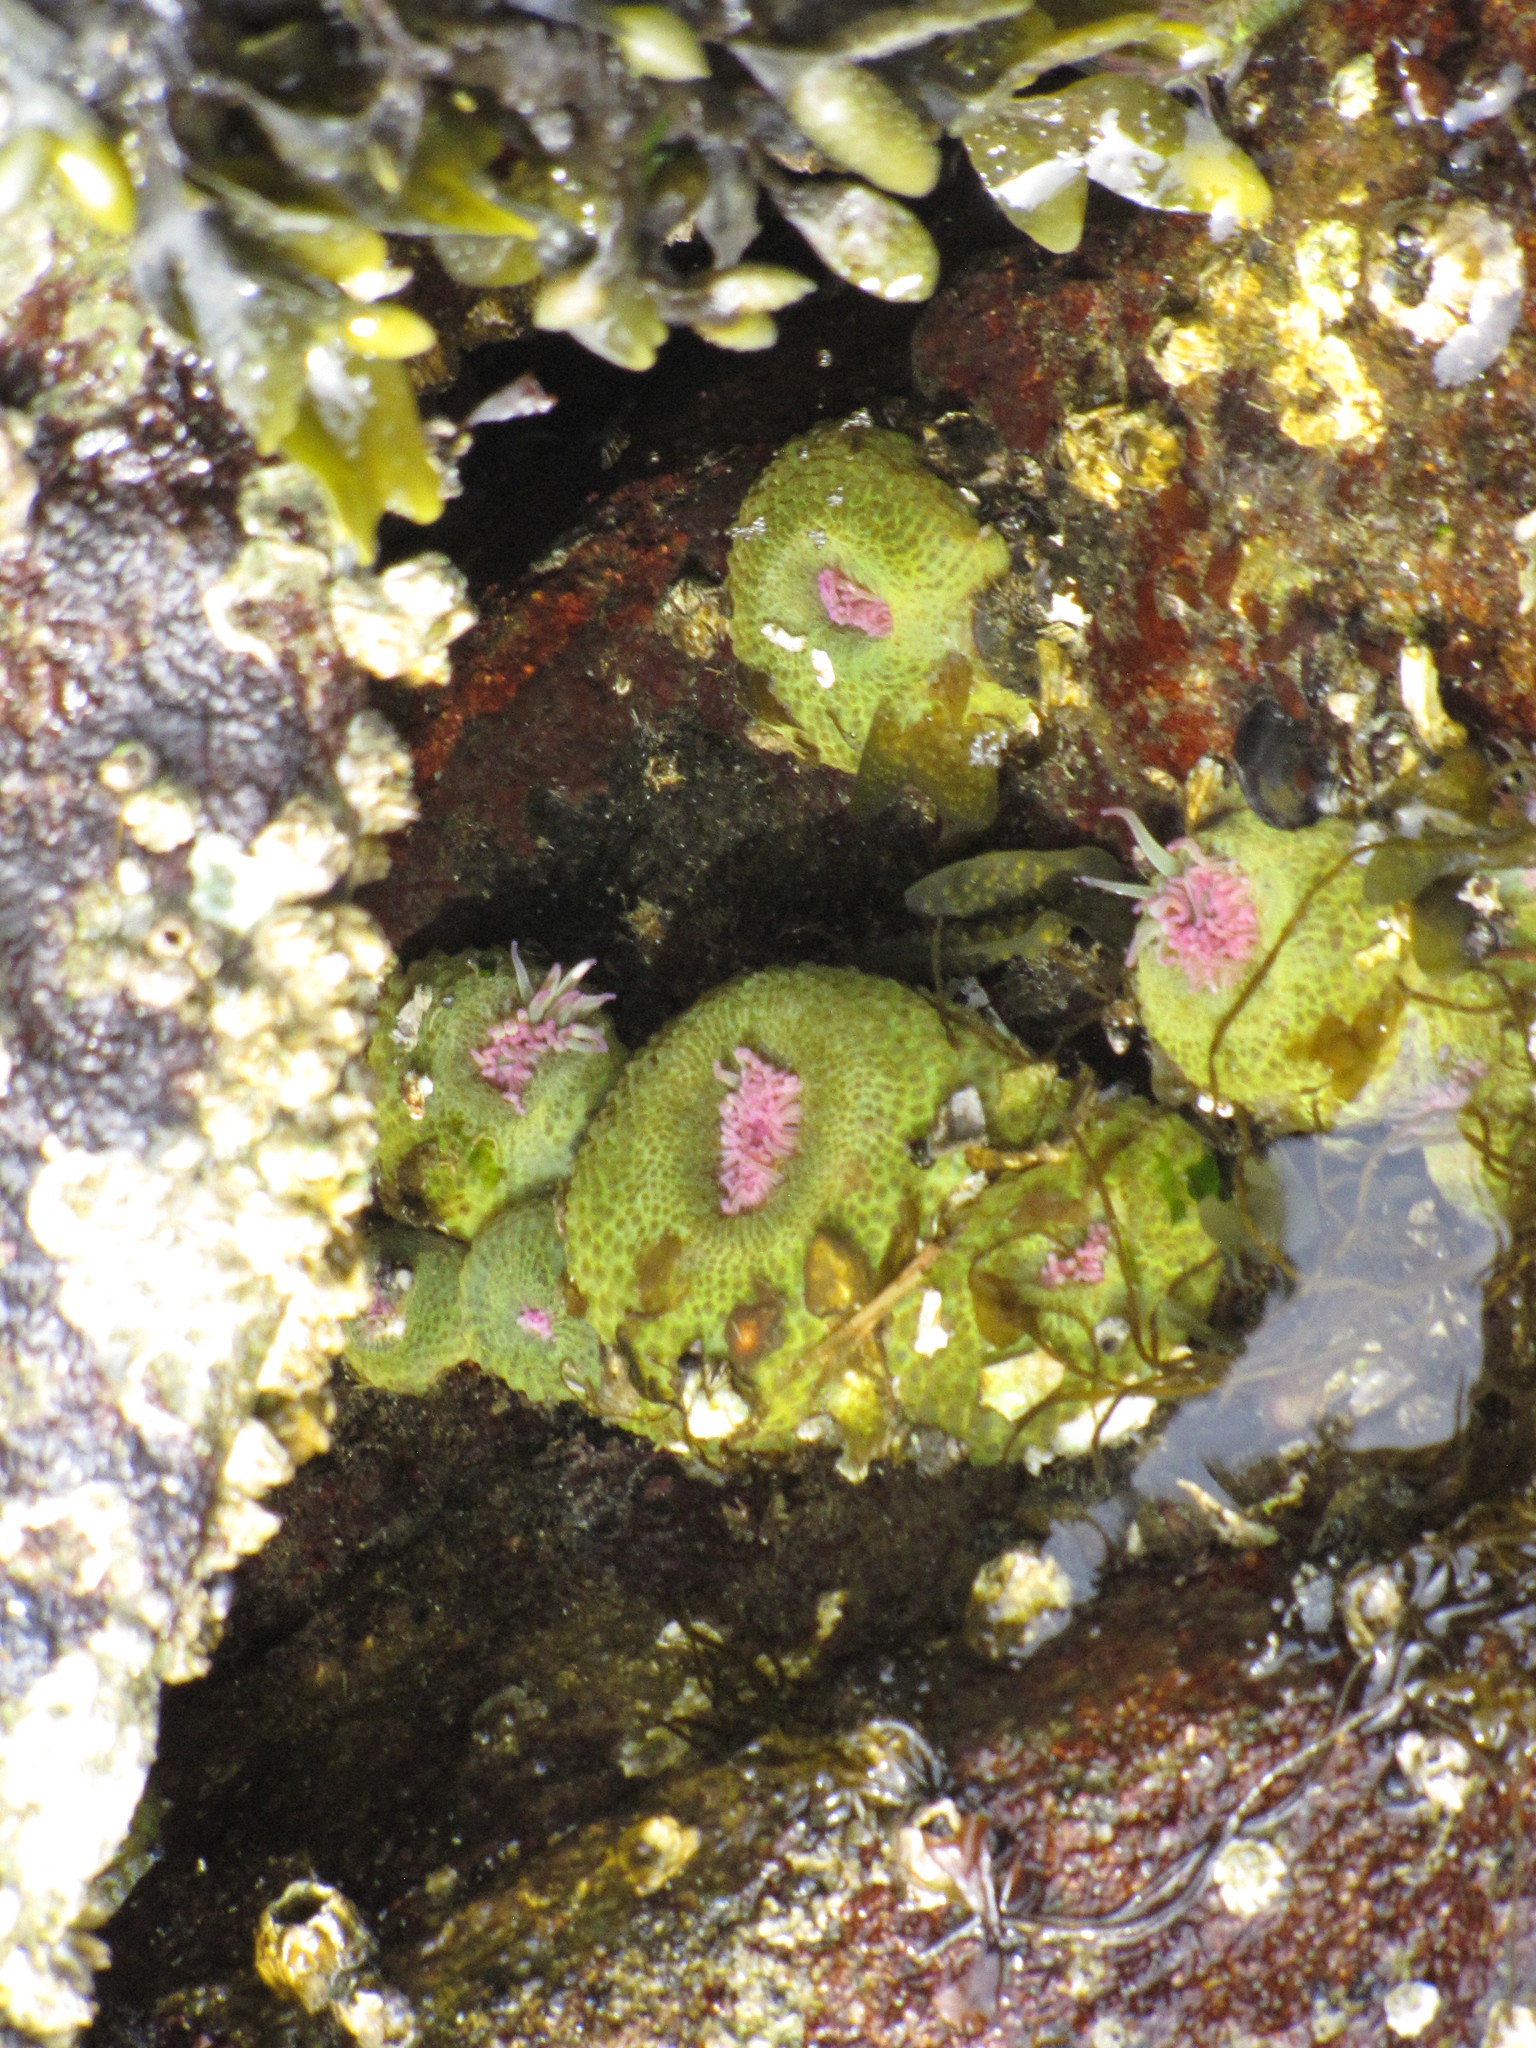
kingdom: Animalia
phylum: Cnidaria
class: Anthozoa
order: Actiniaria
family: Actiniidae
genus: Anthopleura
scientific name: Anthopleura elegantissima
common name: Clonal anemone
